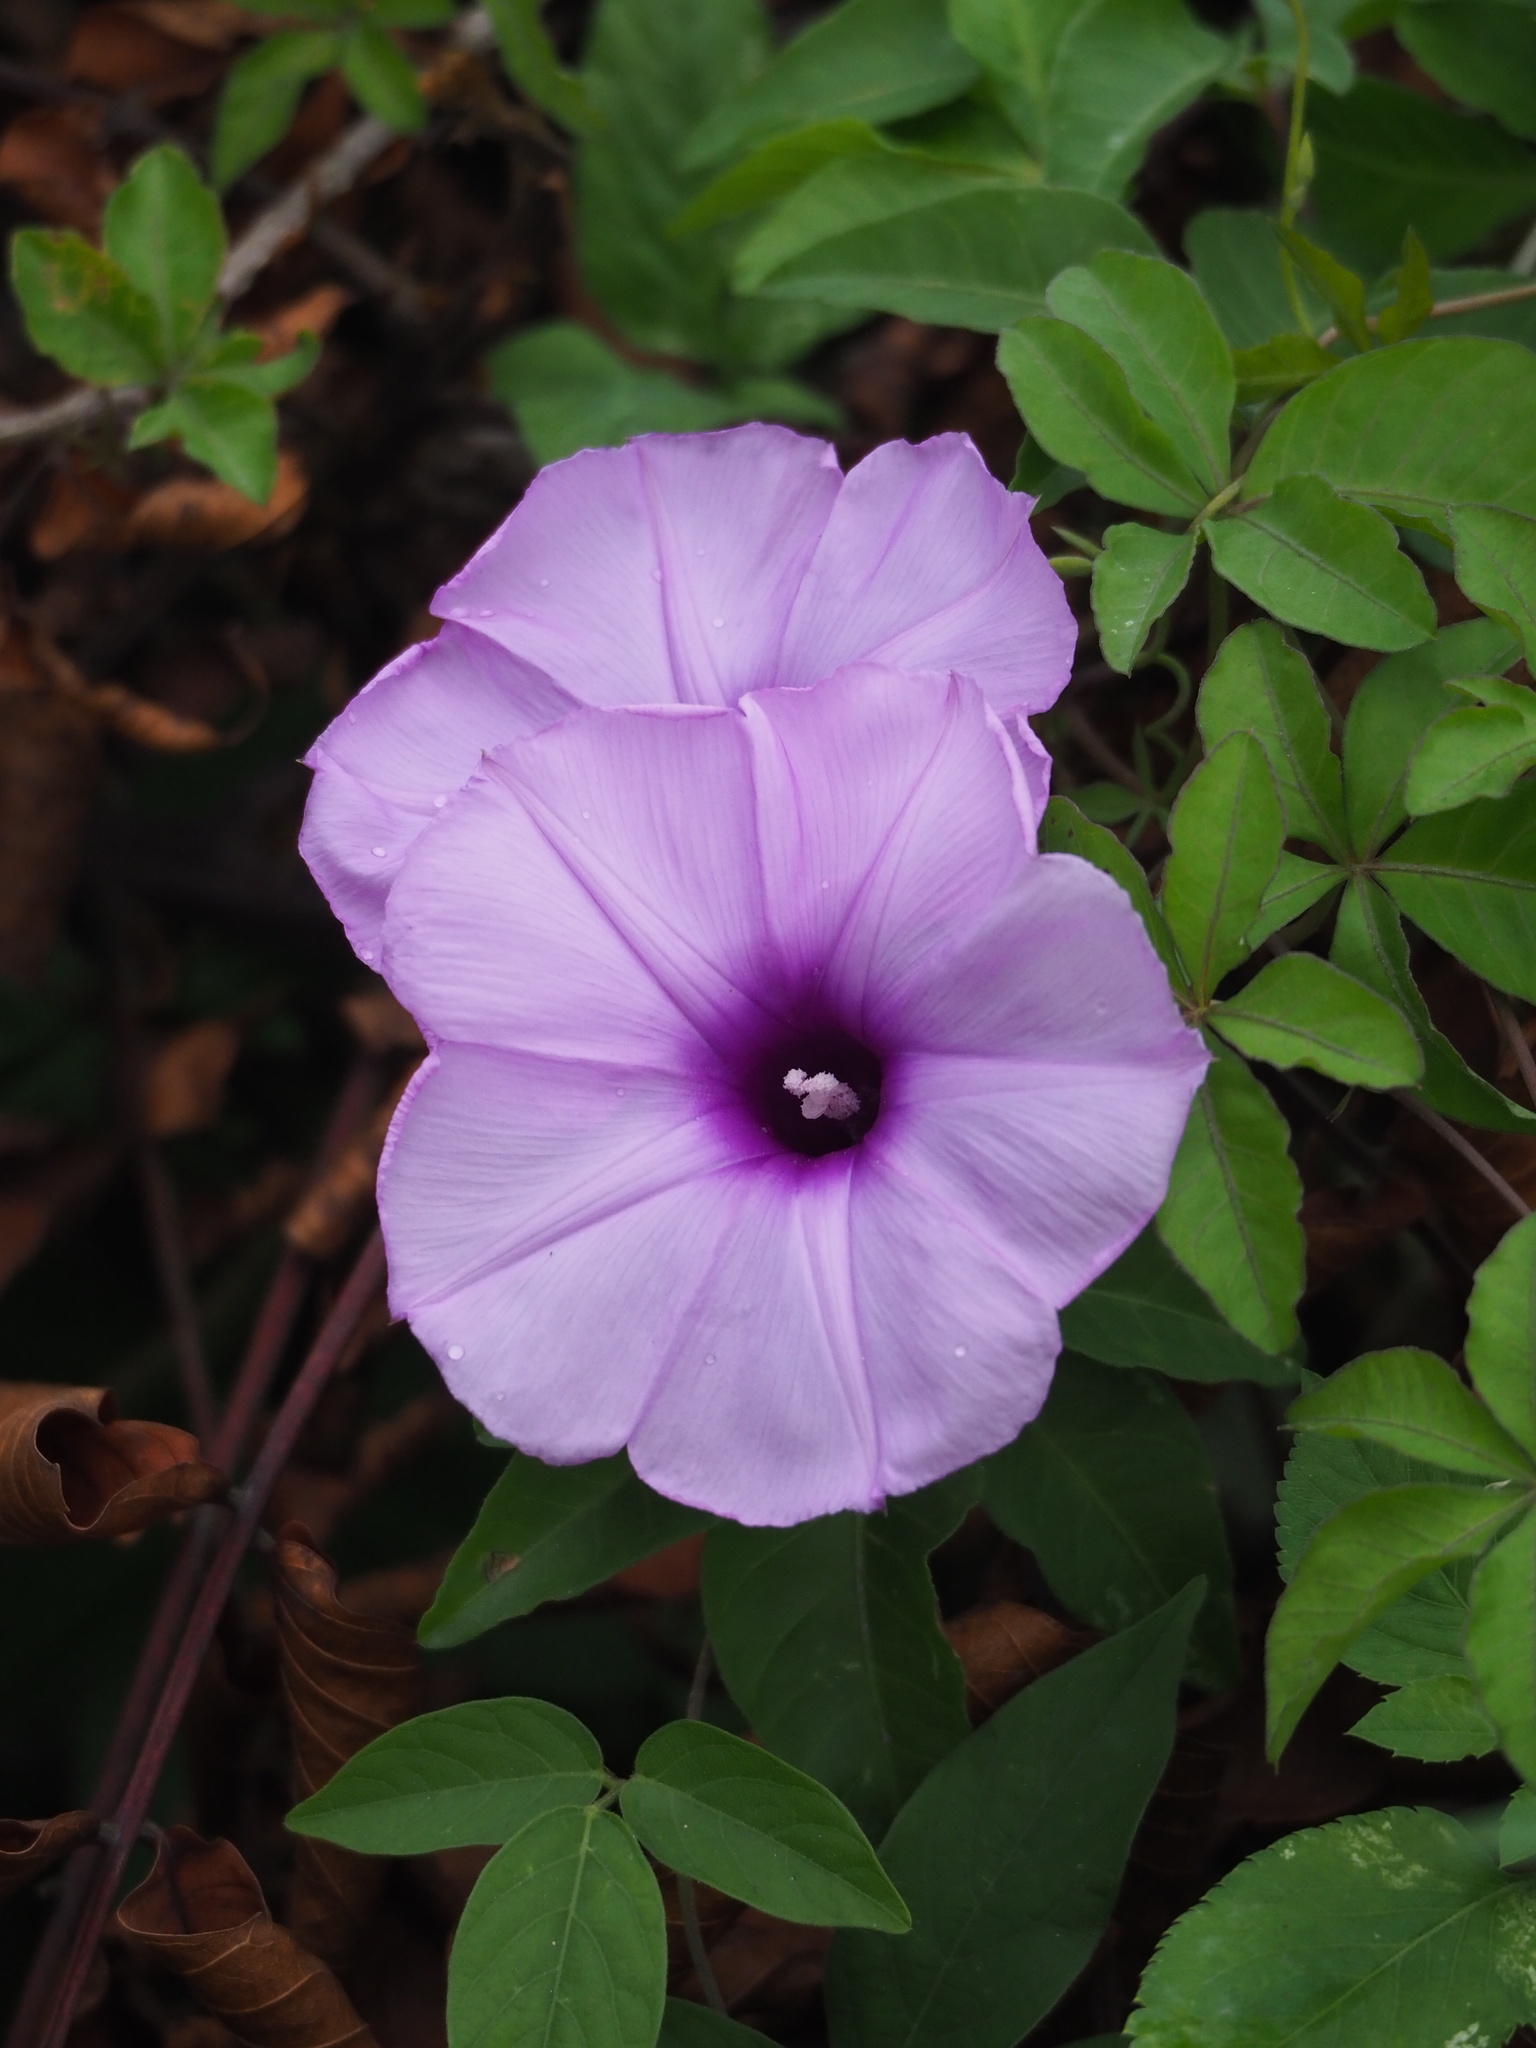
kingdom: Plantae
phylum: Tracheophyta
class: Magnoliopsida
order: Solanales
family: Convolvulaceae
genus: Ipomoea
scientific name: Ipomoea cairica
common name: Mile a minute vine
